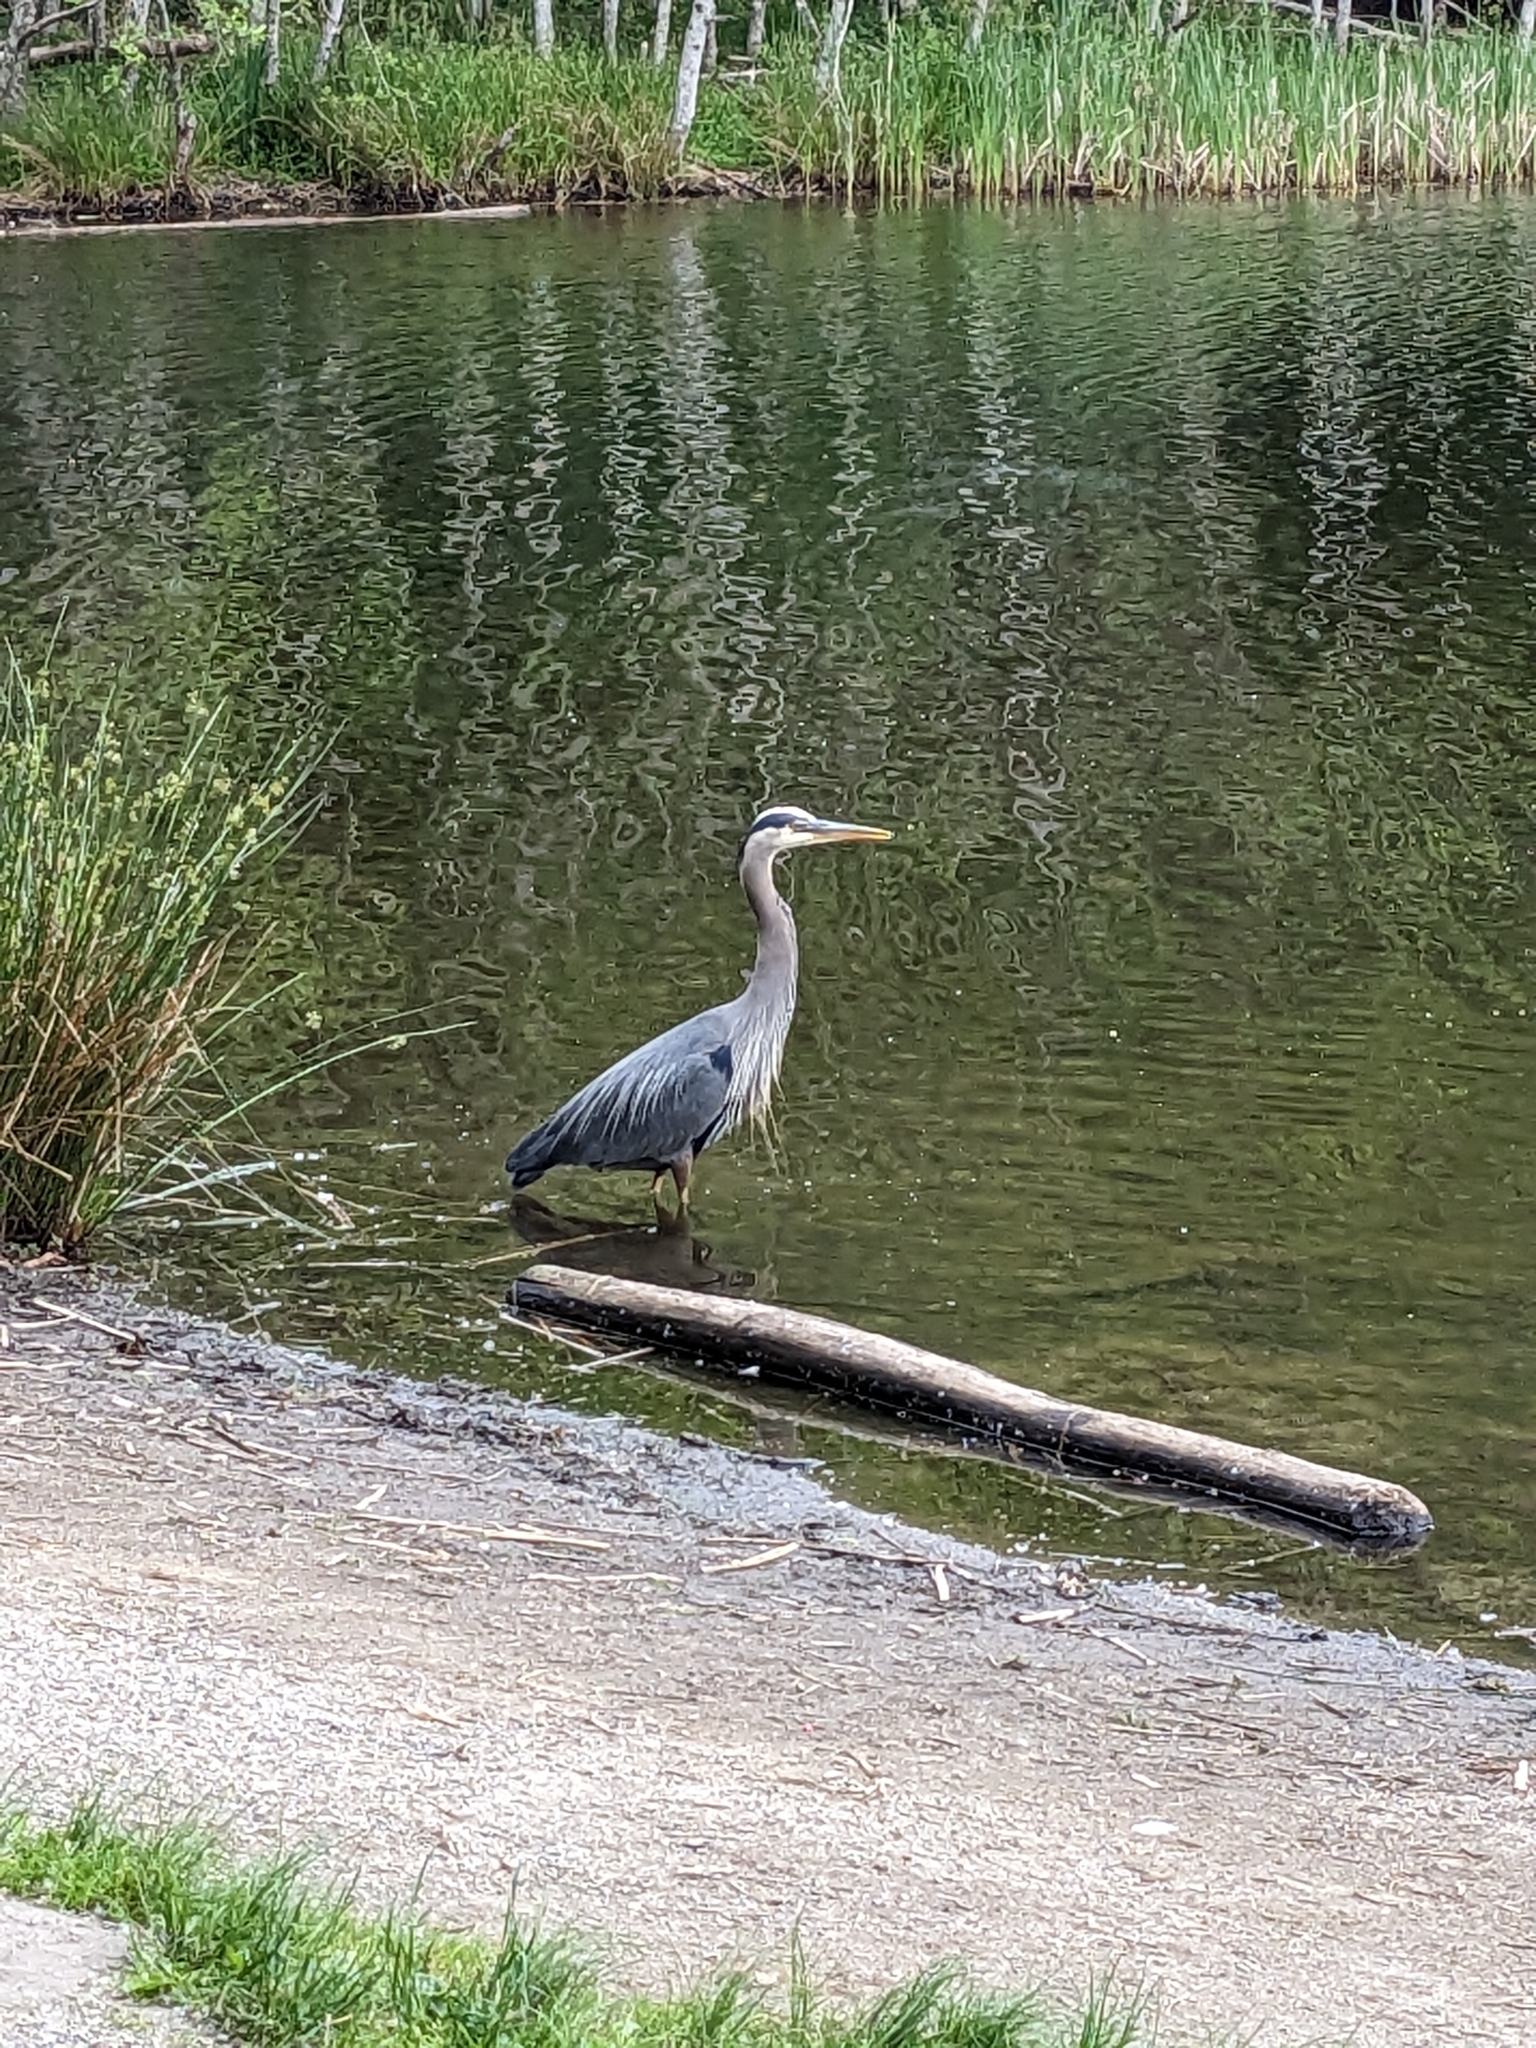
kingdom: Animalia
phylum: Chordata
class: Aves
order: Pelecaniformes
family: Ardeidae
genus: Ardea
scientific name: Ardea herodias
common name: Great blue heron
